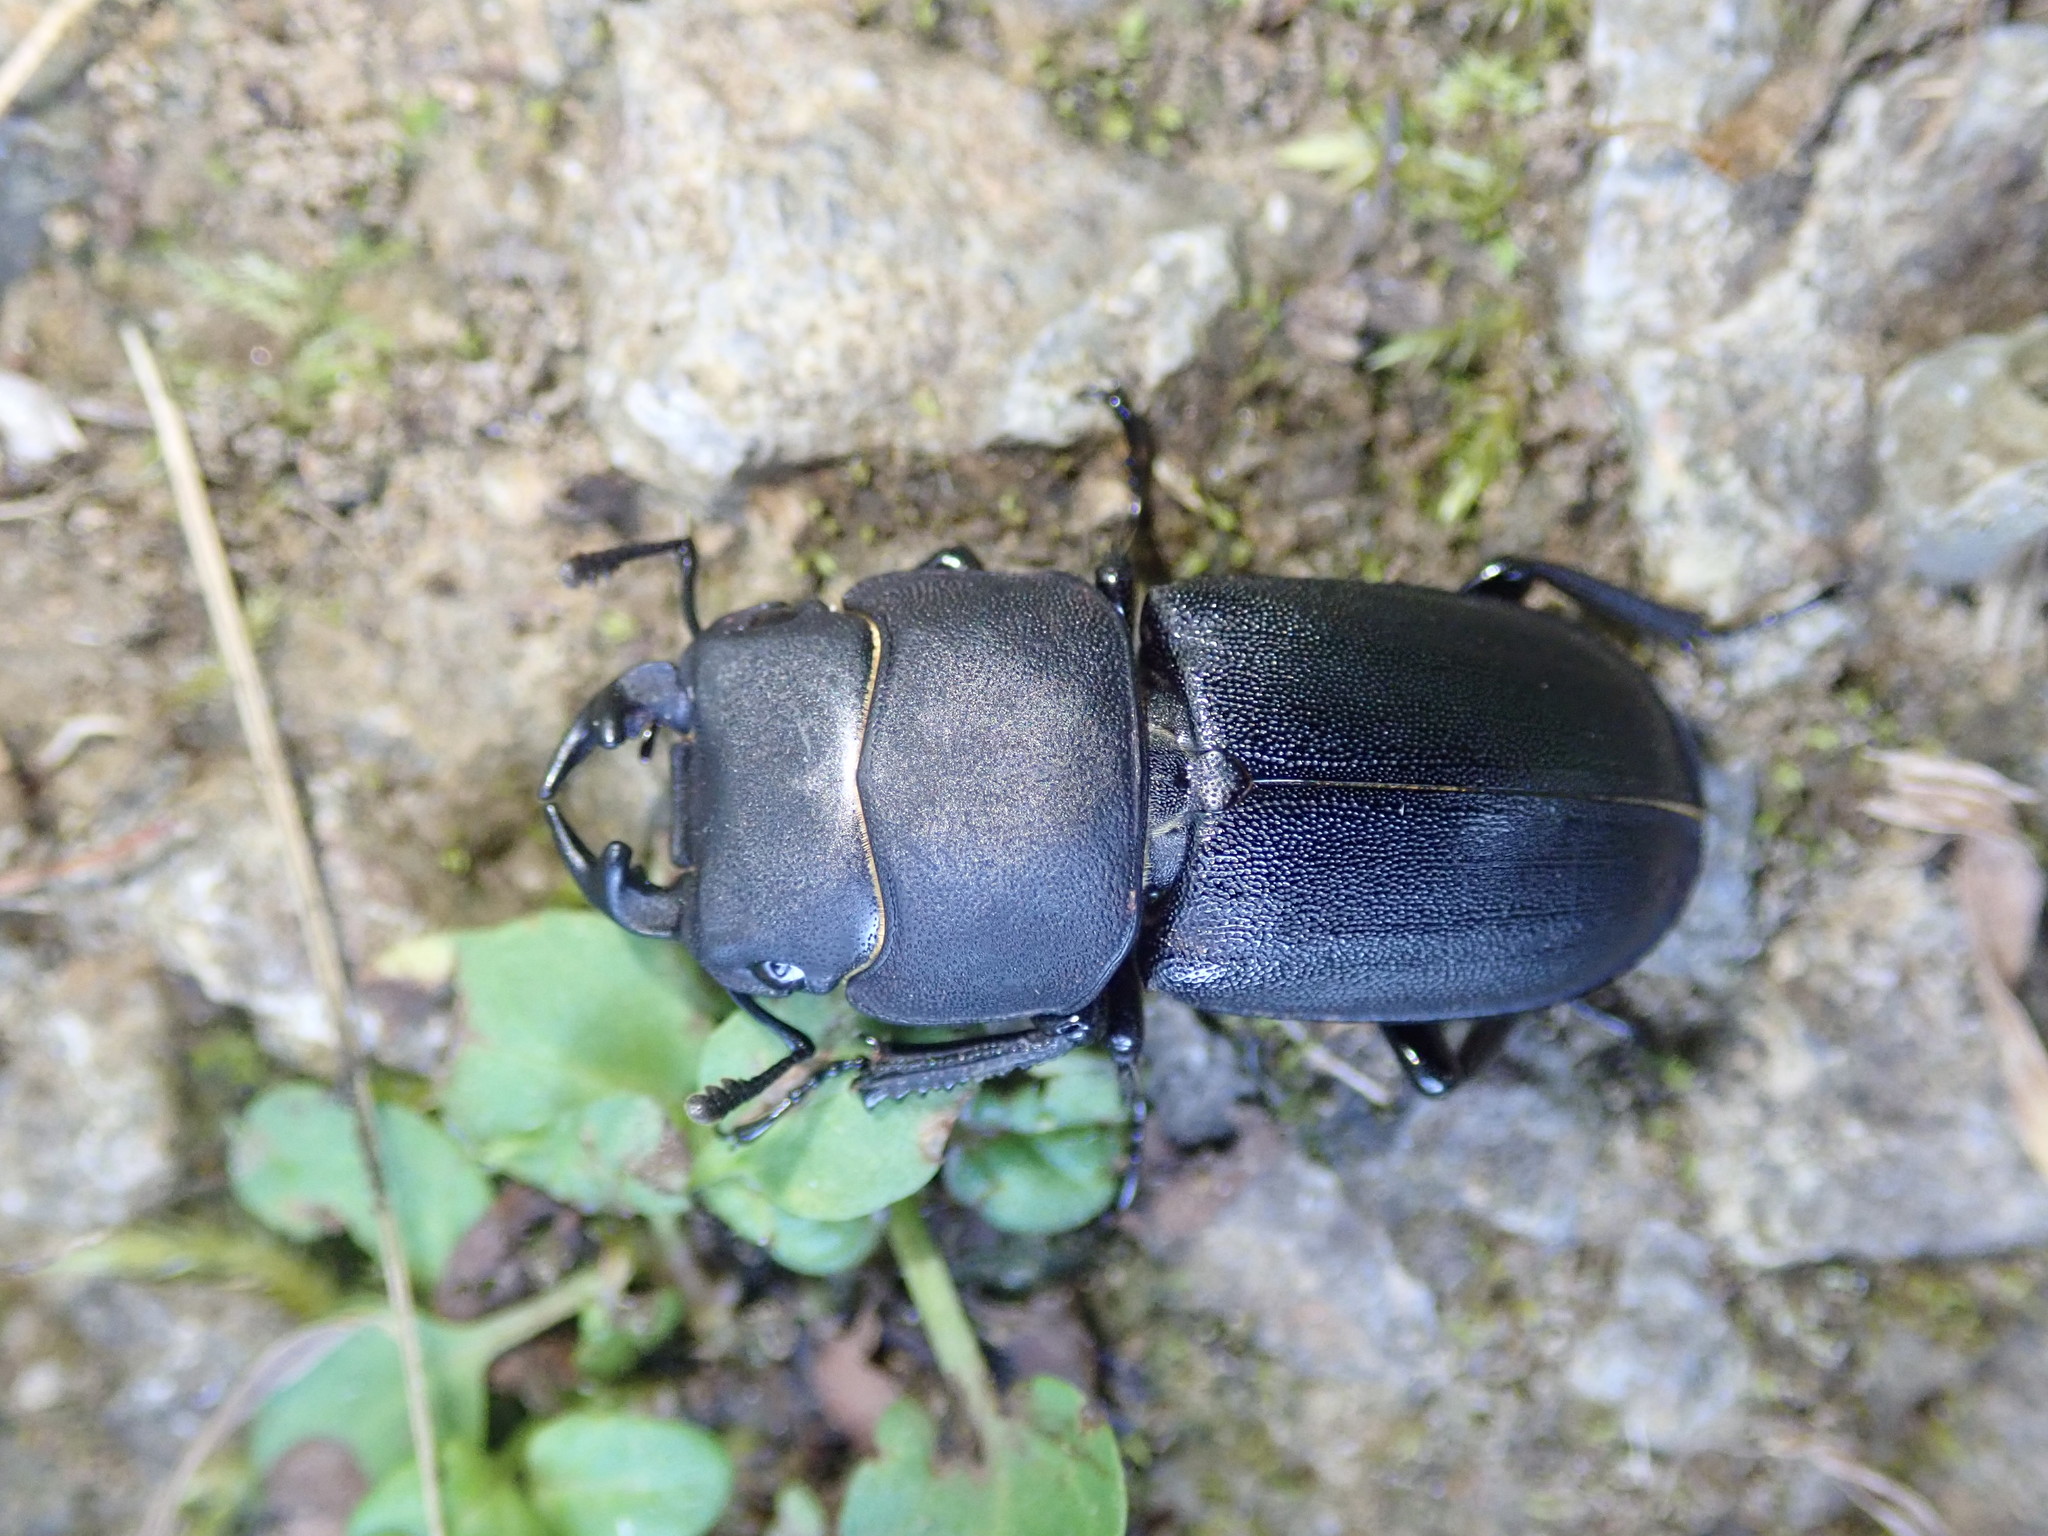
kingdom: Animalia
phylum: Arthropoda
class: Insecta
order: Coleoptera
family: Lucanidae
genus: Dorcus
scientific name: Dorcus parallelipipedus
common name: Lesser stag beetle
